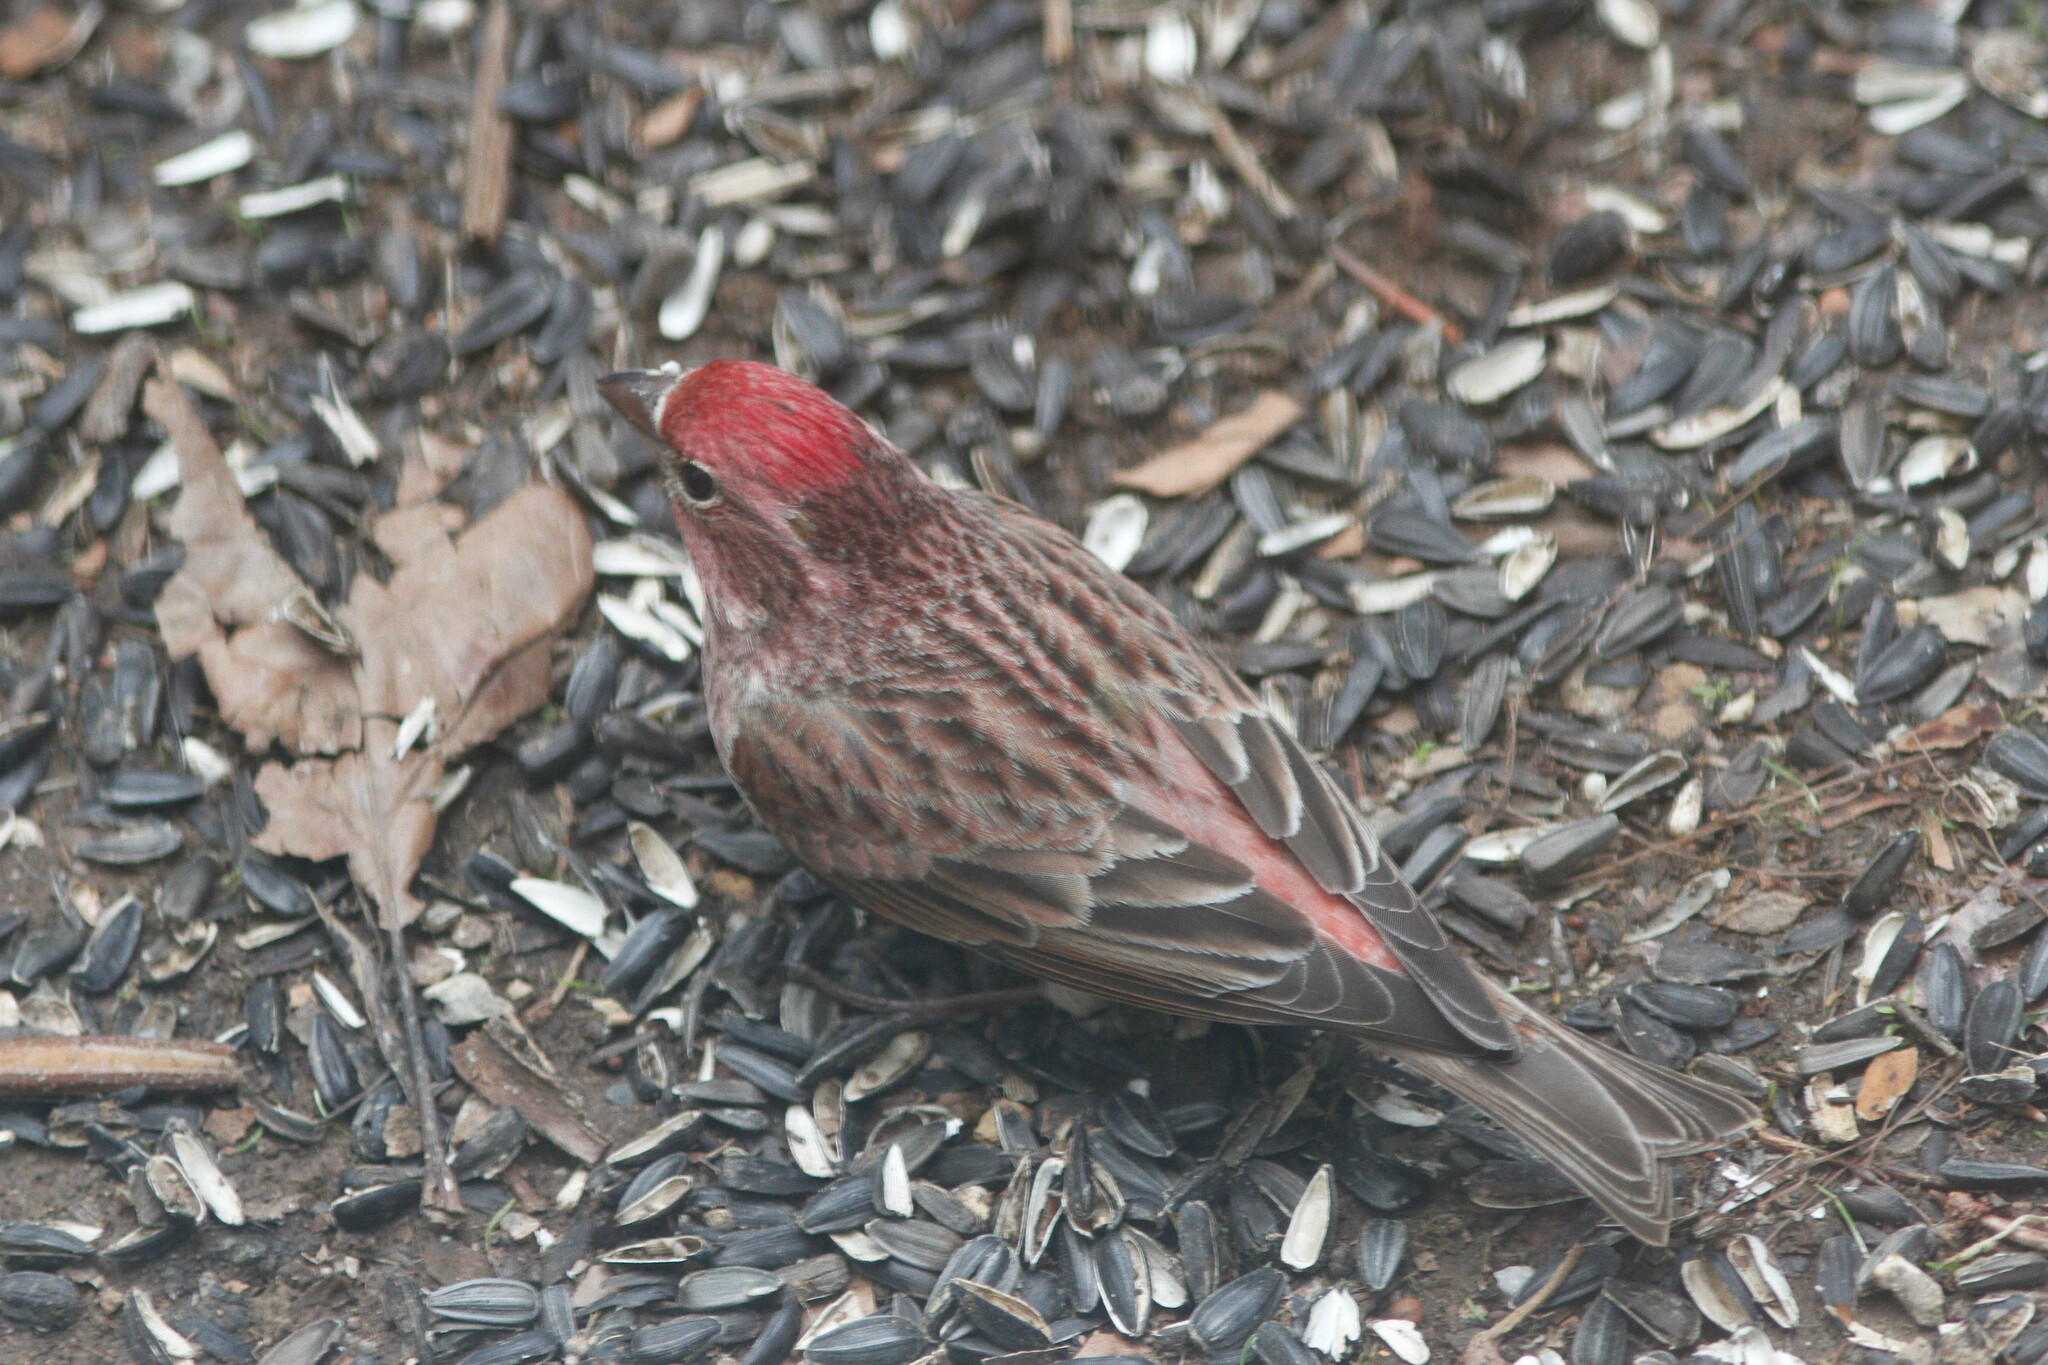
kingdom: Animalia
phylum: Chordata
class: Aves
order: Passeriformes
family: Fringillidae
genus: Haemorhous
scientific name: Haemorhous cassinii
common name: Cassin's finch
